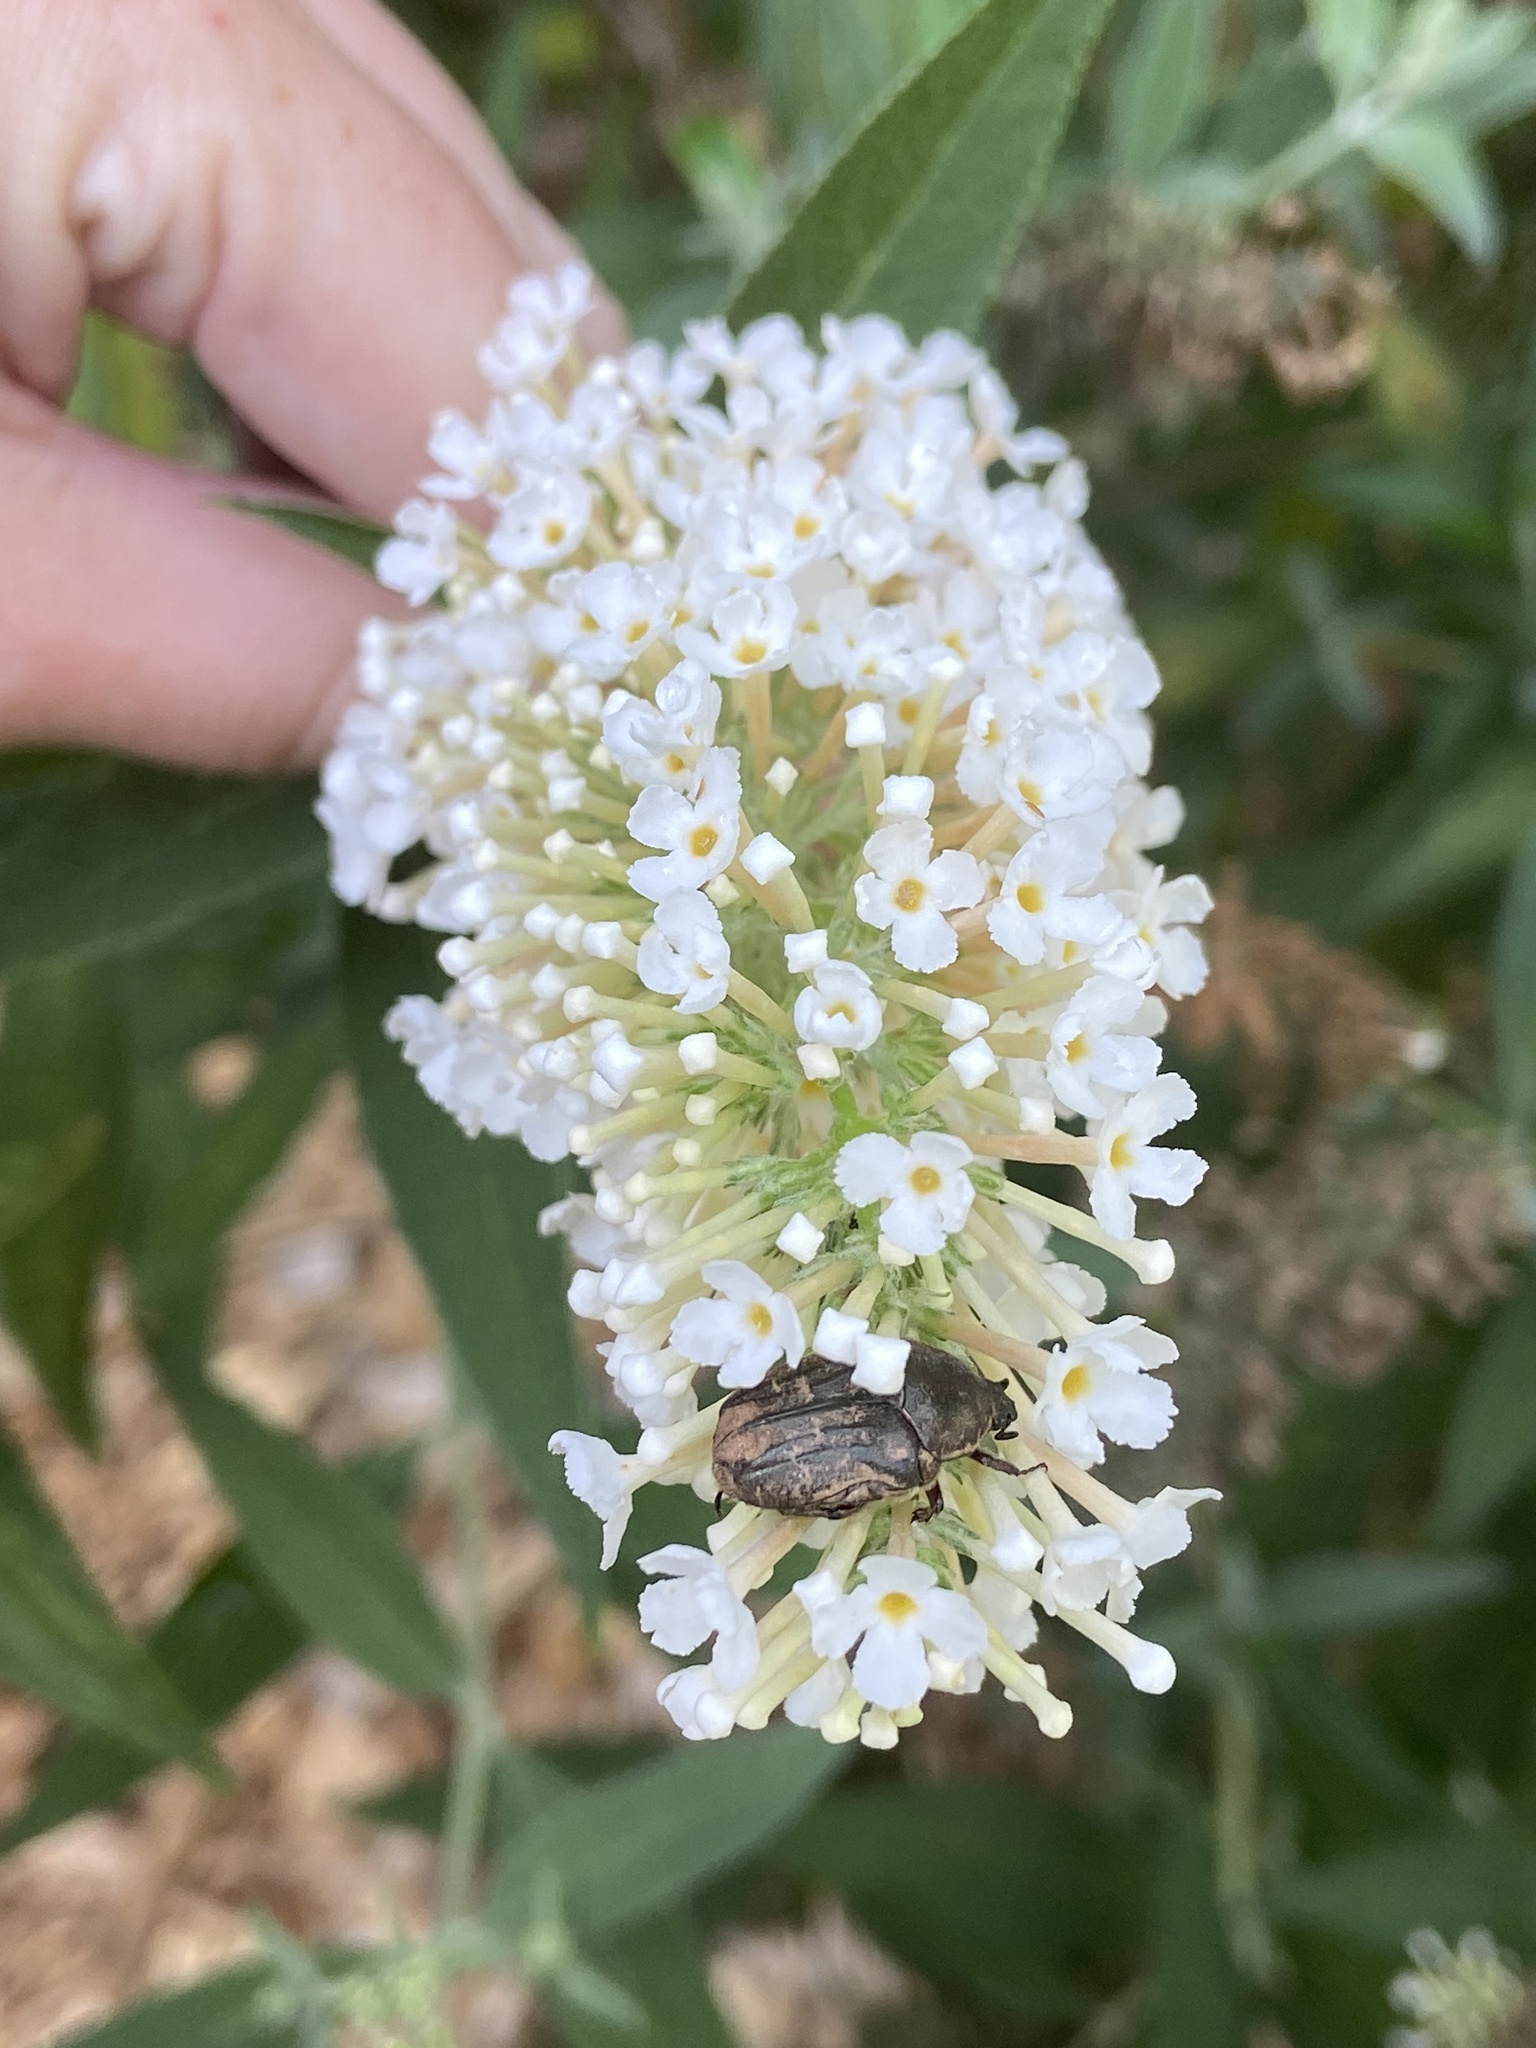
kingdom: Animalia
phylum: Arthropoda
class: Insecta
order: Coleoptera
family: Scarabaeidae
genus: Euphoria
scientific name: Euphoria sepulcralis
